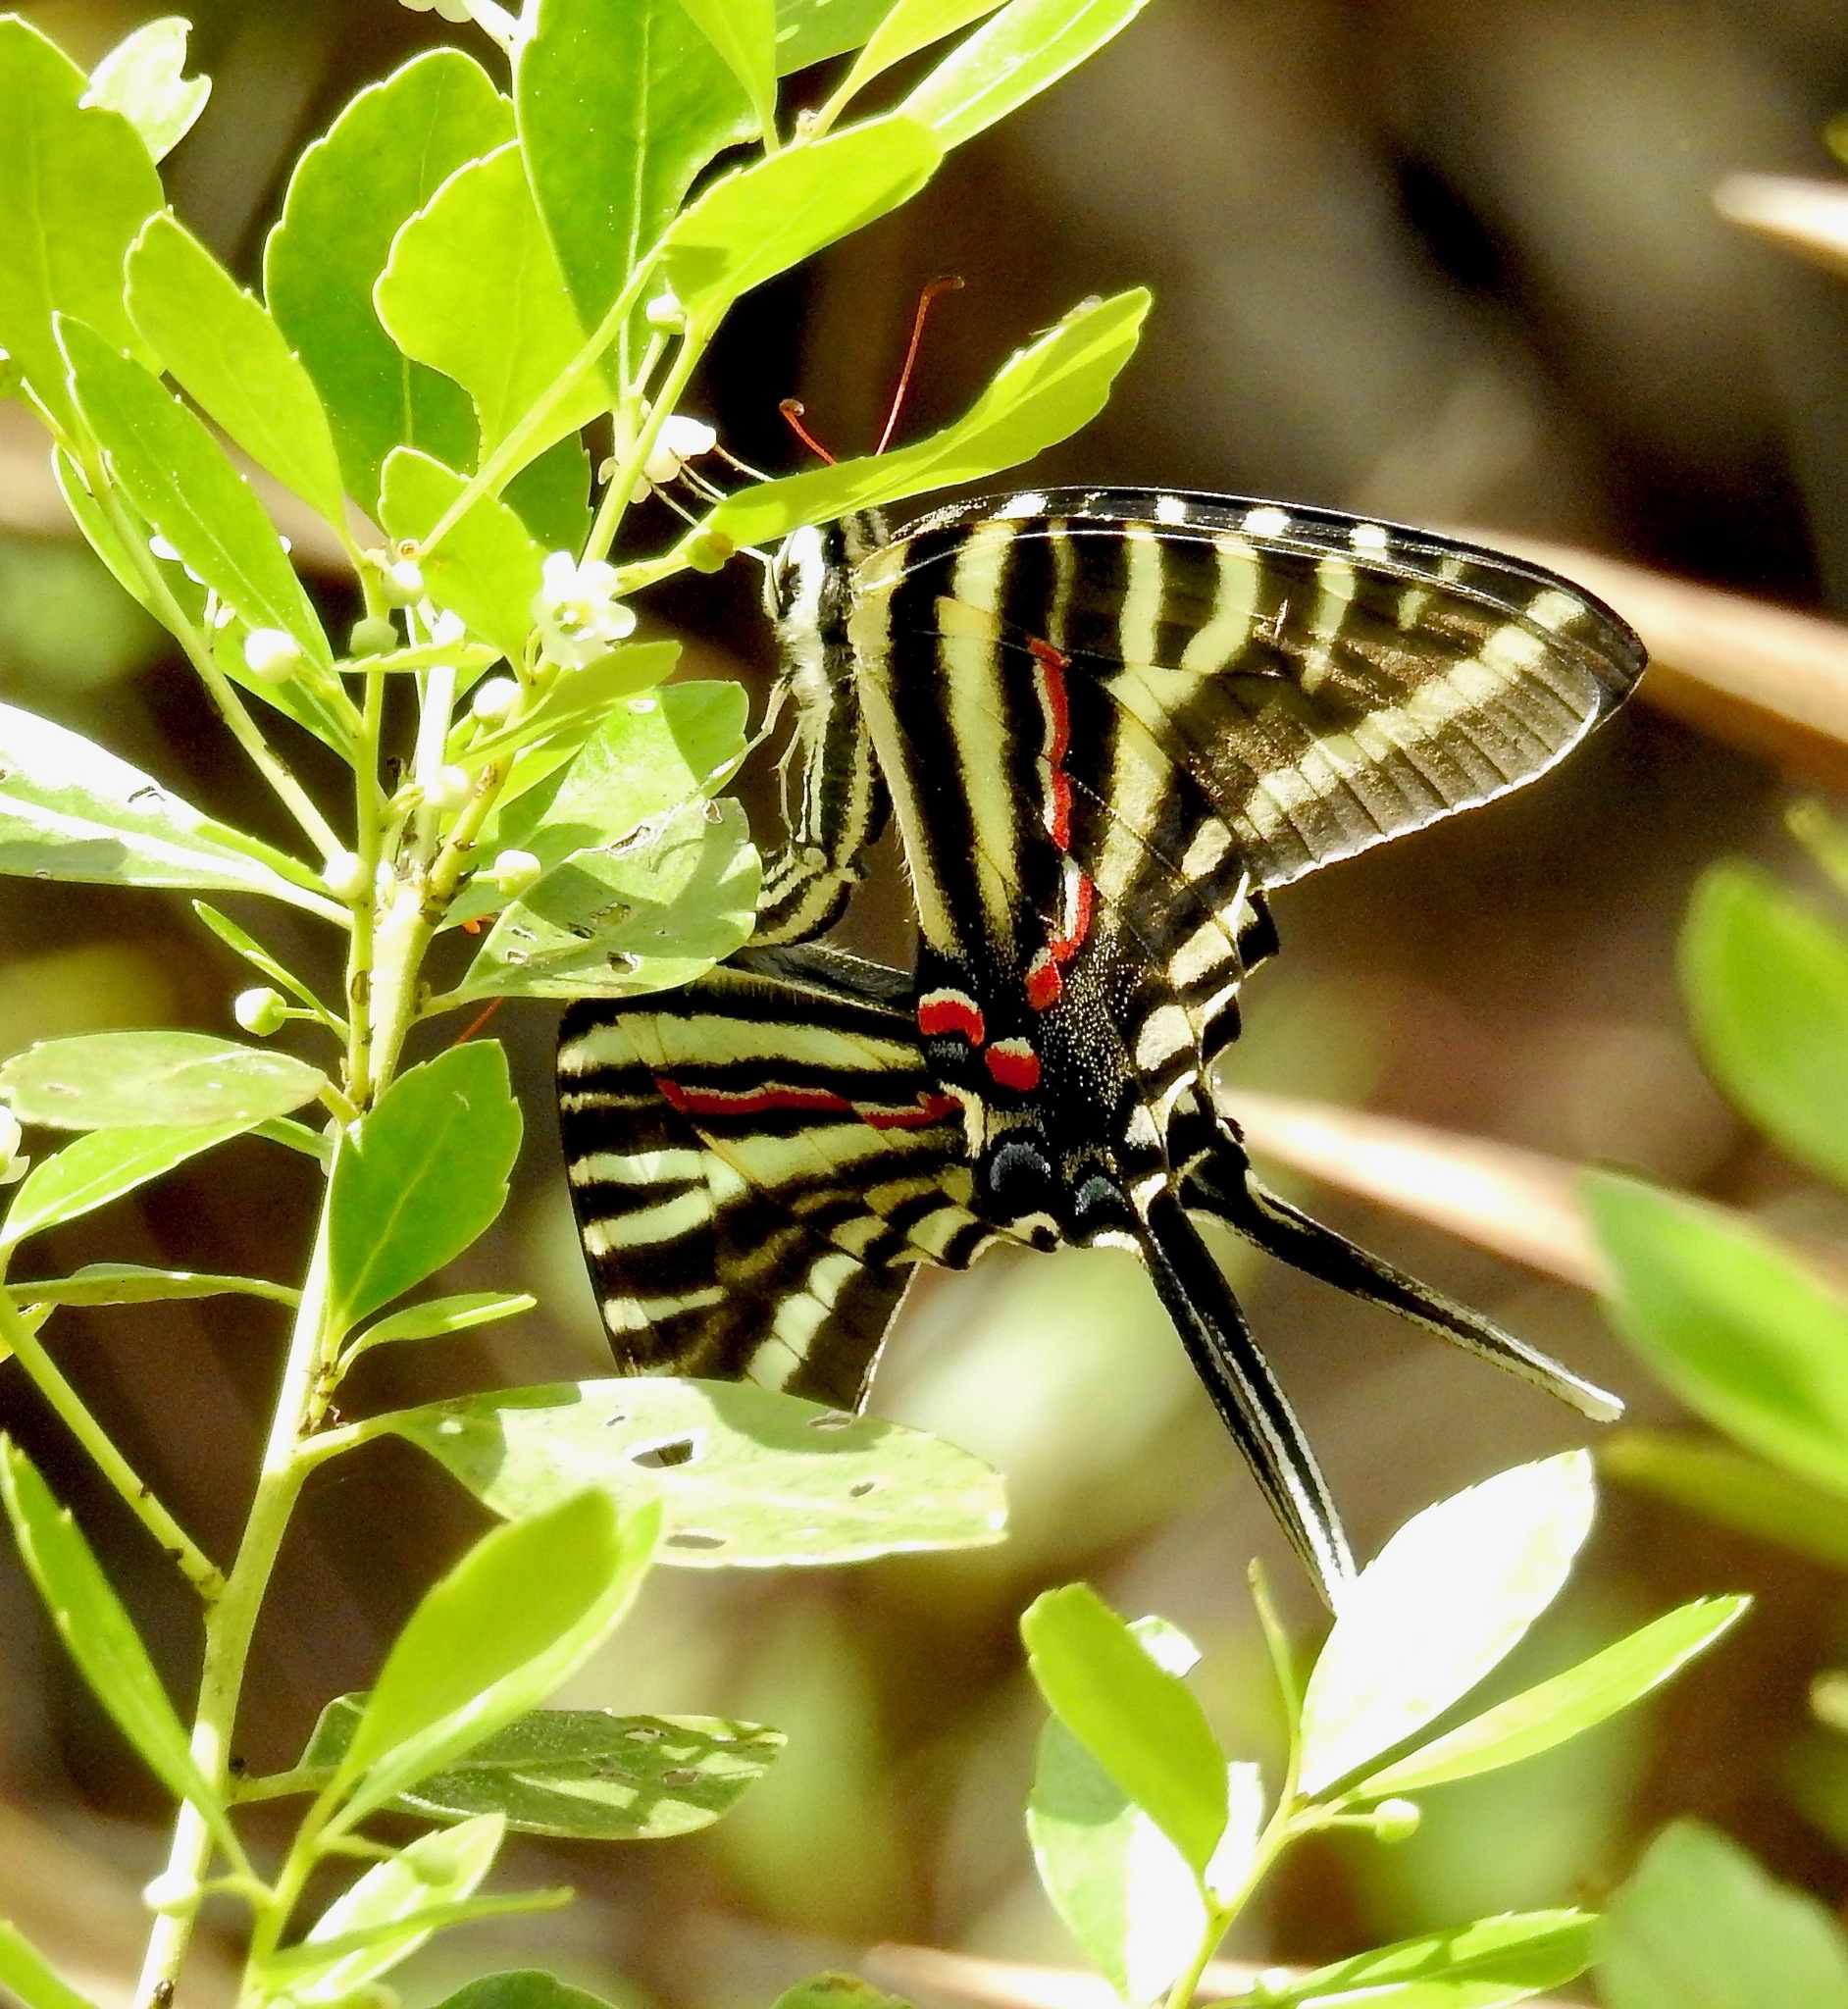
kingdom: Animalia
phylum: Arthropoda
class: Insecta
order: Lepidoptera
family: Papilionidae
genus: Protographium
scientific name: Protographium marcellus
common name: Zebra swallowtail
